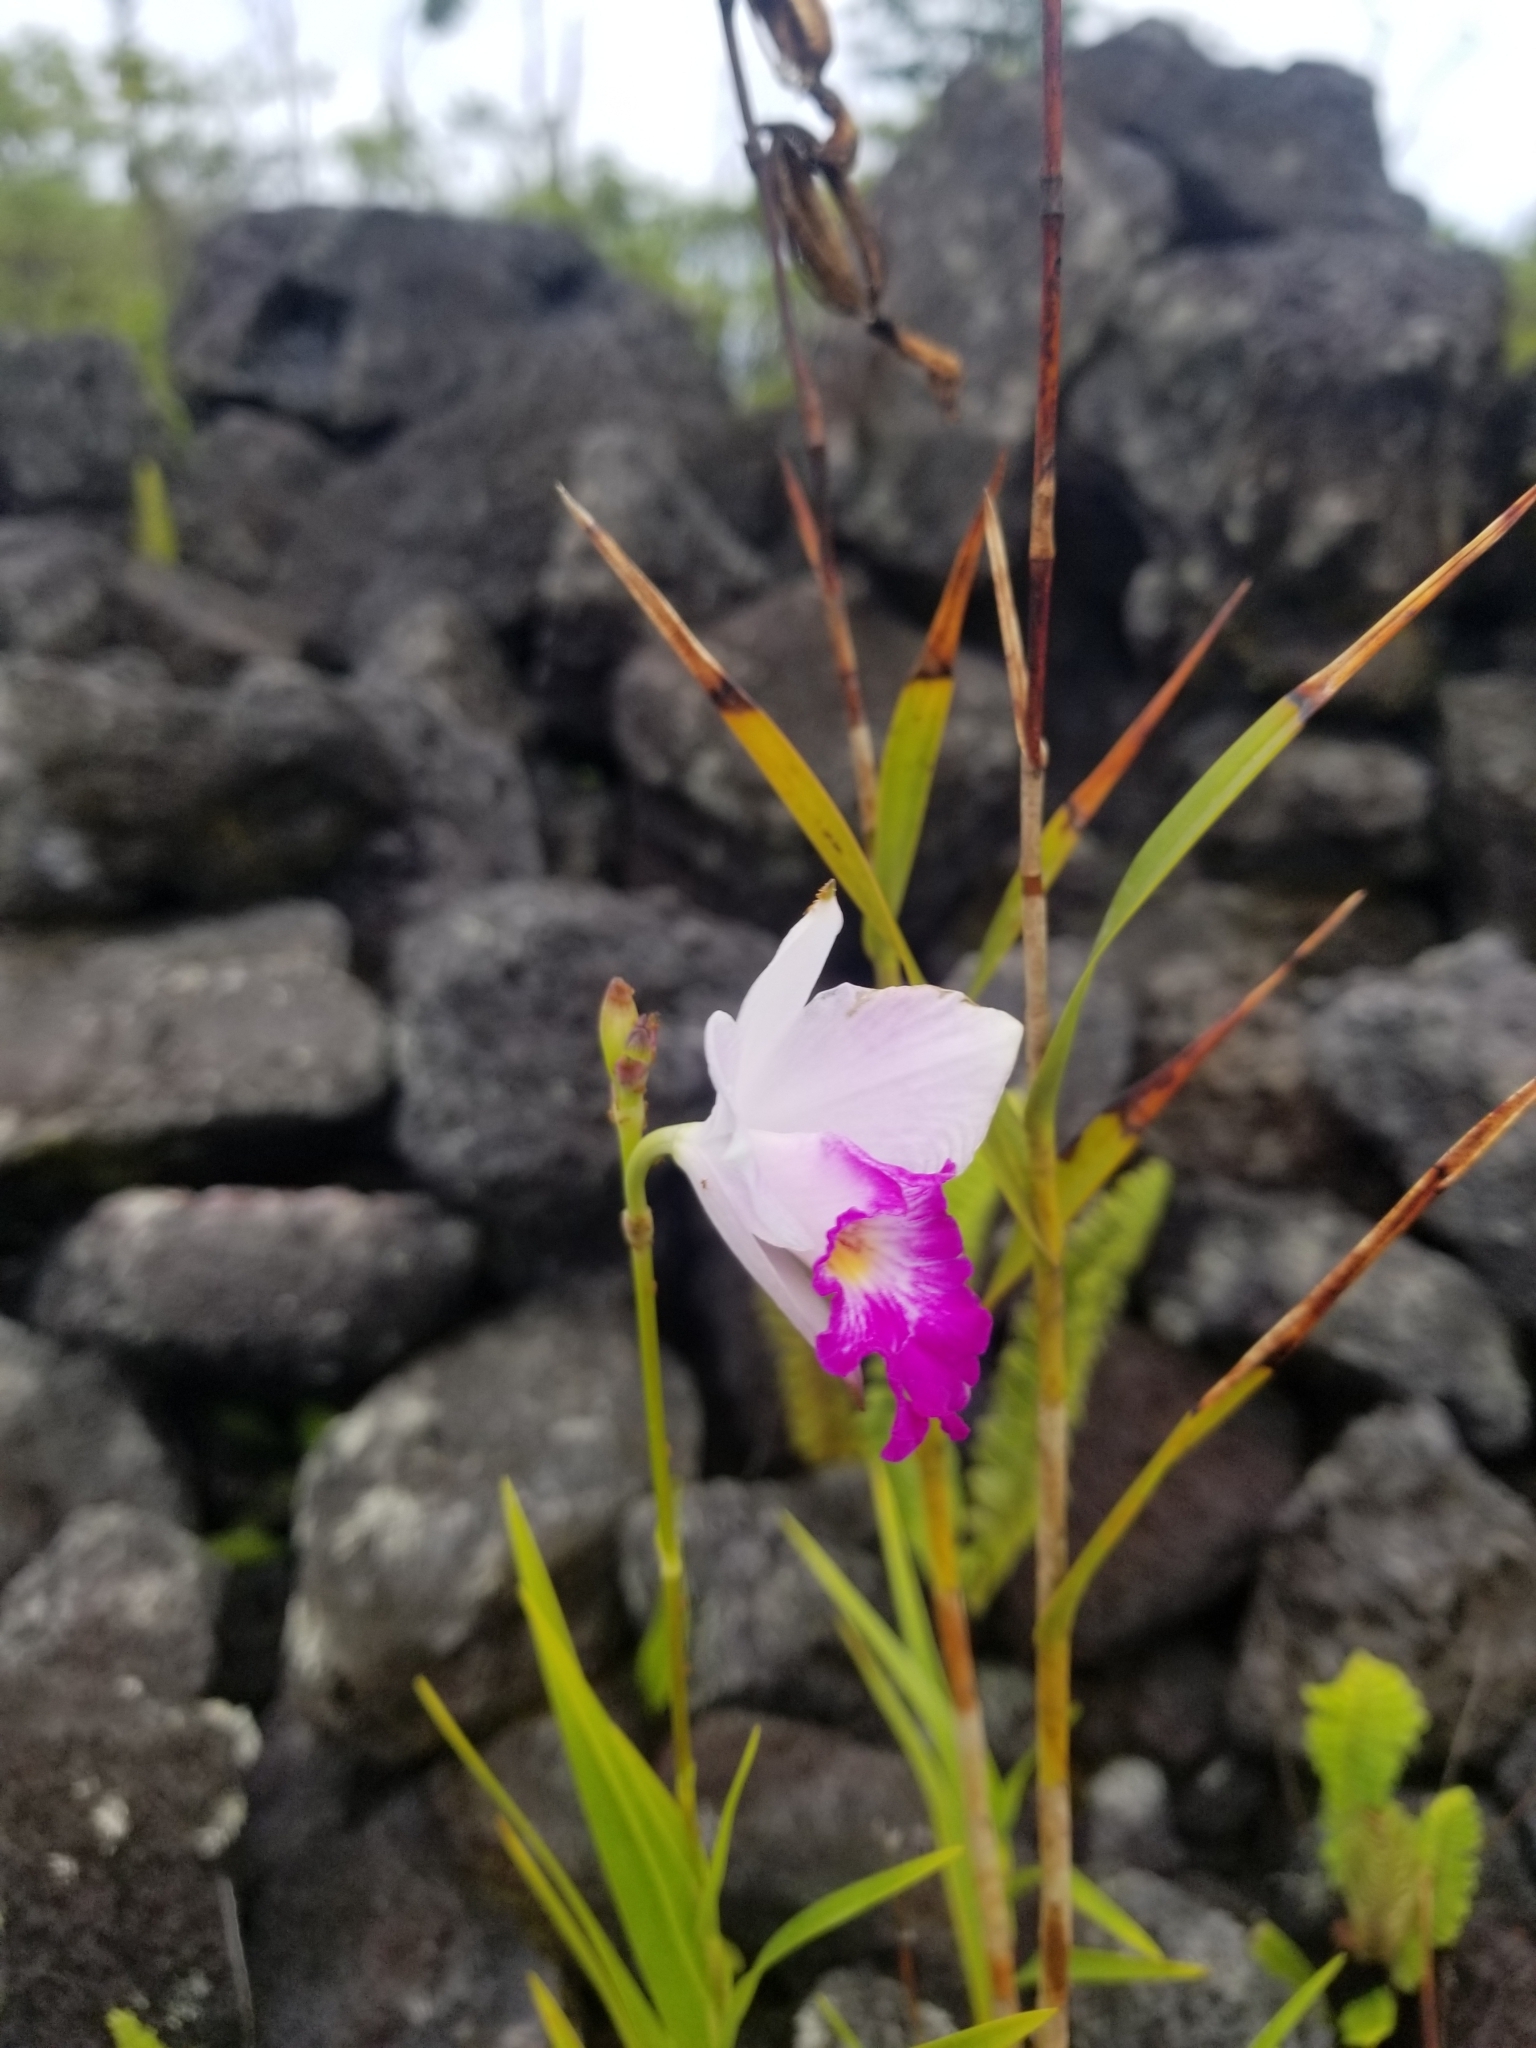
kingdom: Plantae
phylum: Tracheophyta
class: Liliopsida
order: Asparagales
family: Orchidaceae
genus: Arundina
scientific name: Arundina graminifolia
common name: Bamboo orchid
